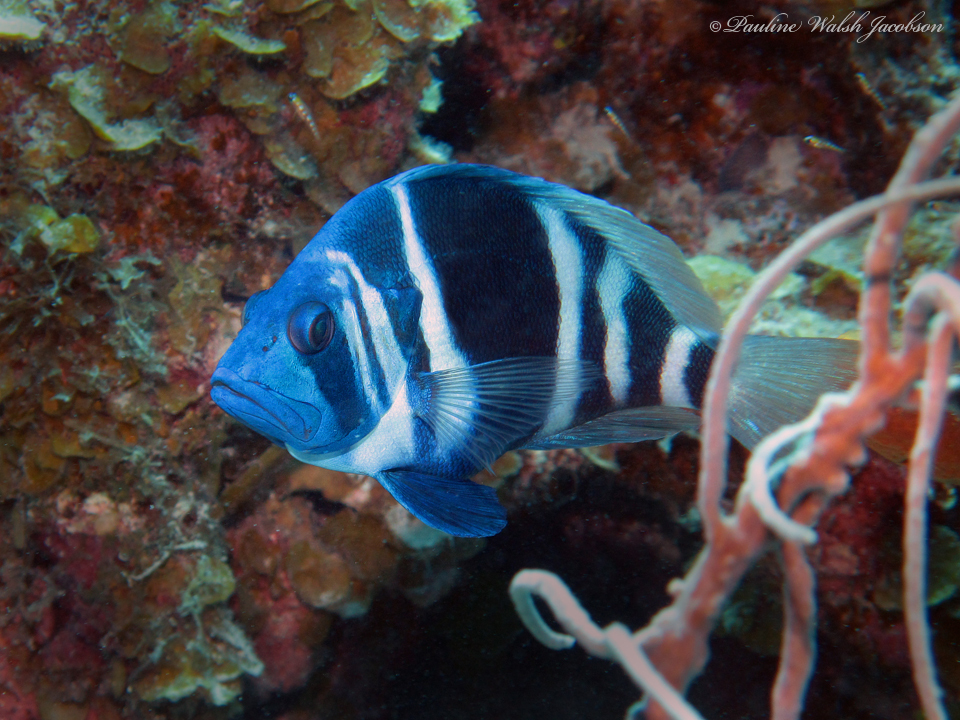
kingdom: Animalia
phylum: Chordata
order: Perciformes
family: Serranidae
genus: Hypoplectrus
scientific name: Hypoplectrus indigo
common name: Indigo hamlet
